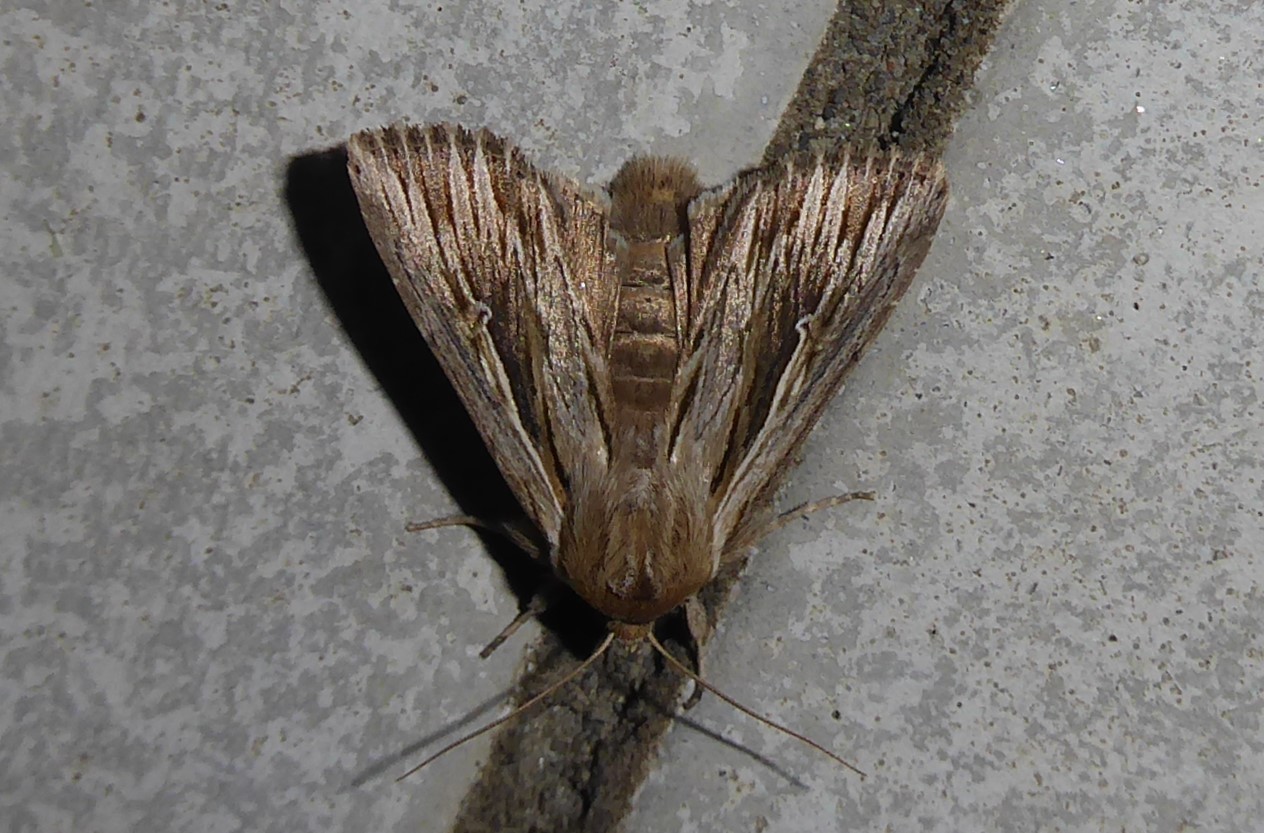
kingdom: Animalia
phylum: Arthropoda
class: Insecta
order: Lepidoptera
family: Noctuidae
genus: Persectania
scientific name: Persectania aversa
